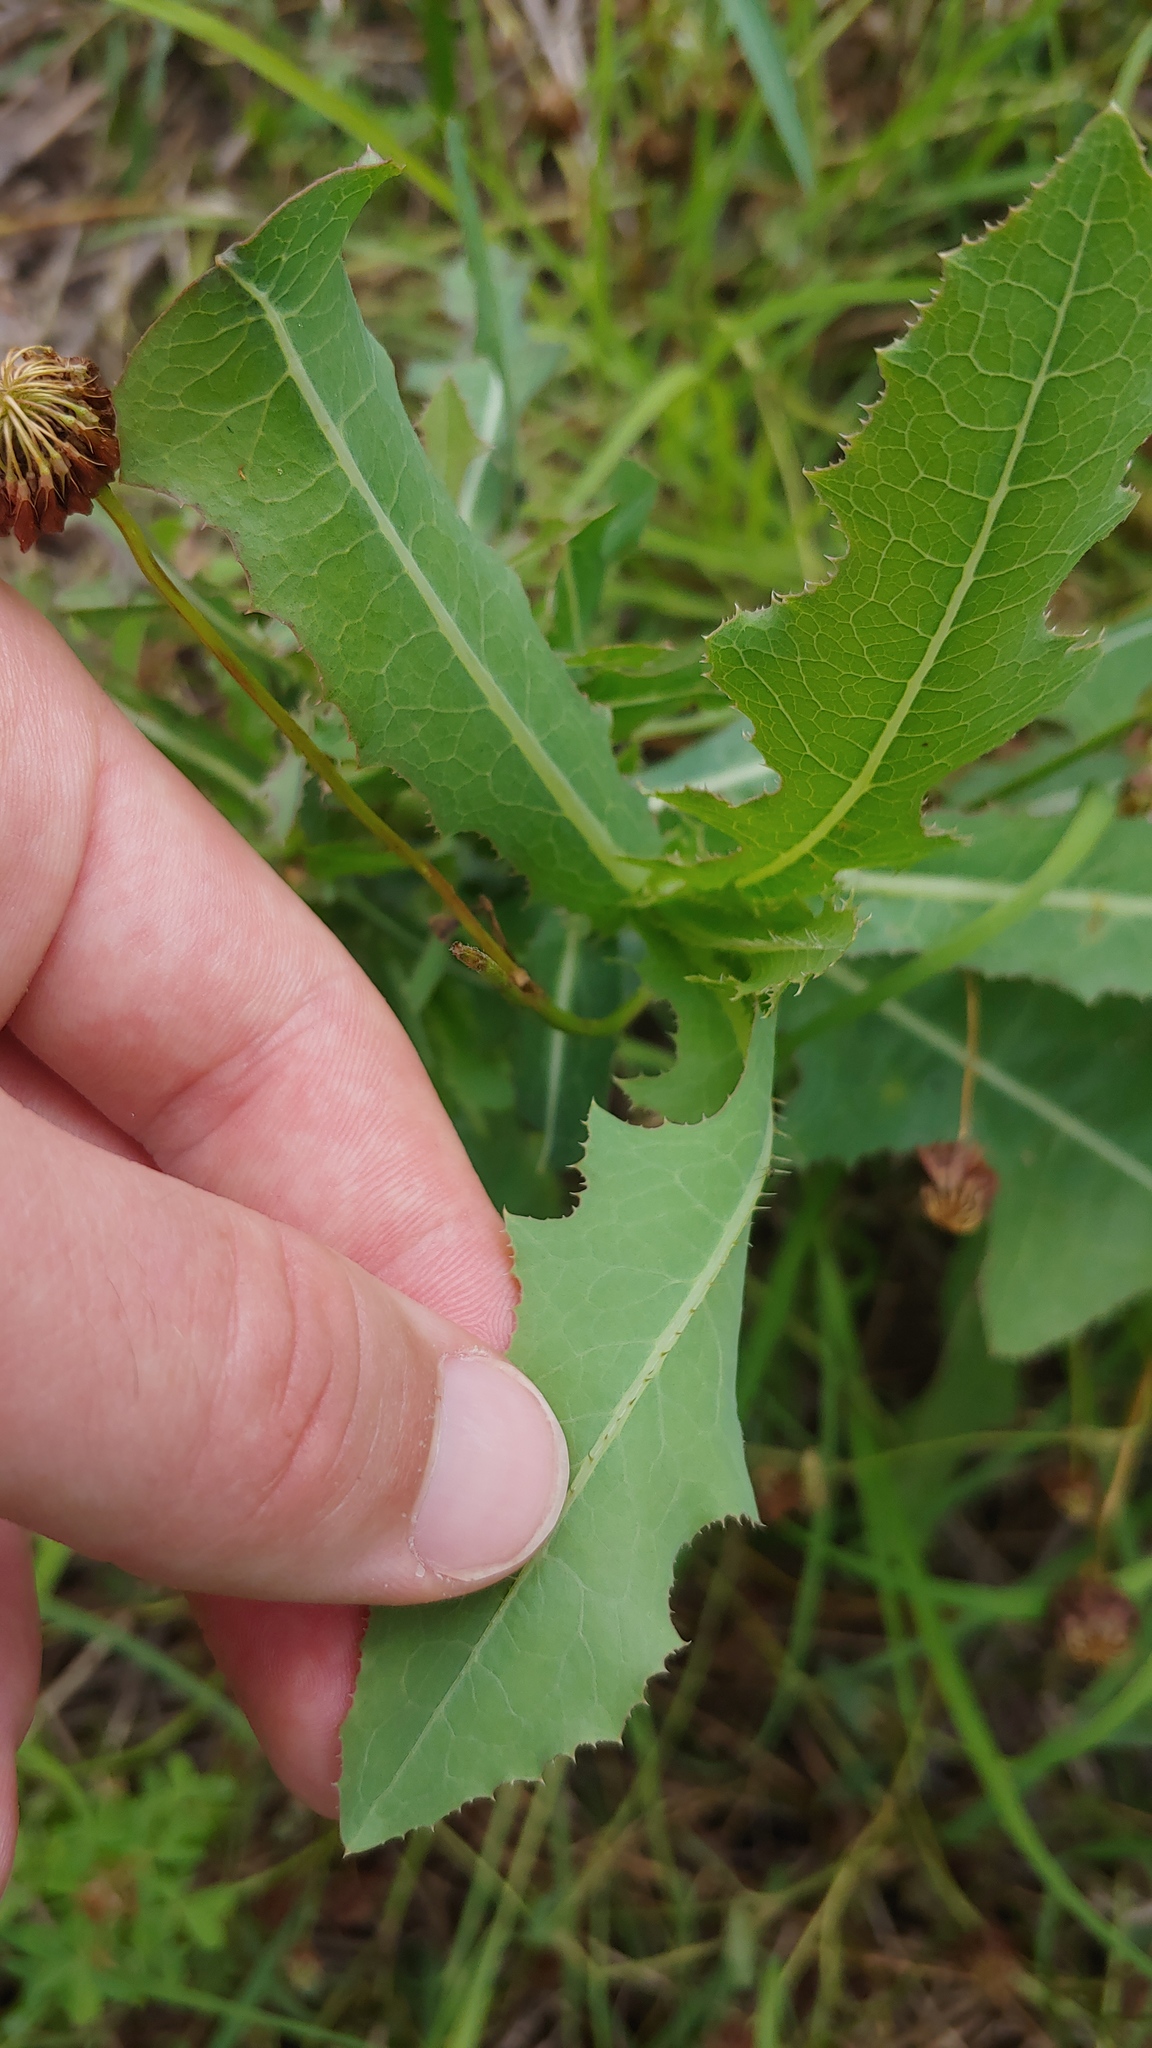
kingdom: Plantae
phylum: Tracheophyta
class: Magnoliopsida
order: Asterales
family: Asteraceae
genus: Lactuca
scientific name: Lactuca serriola
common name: Prickly lettuce
